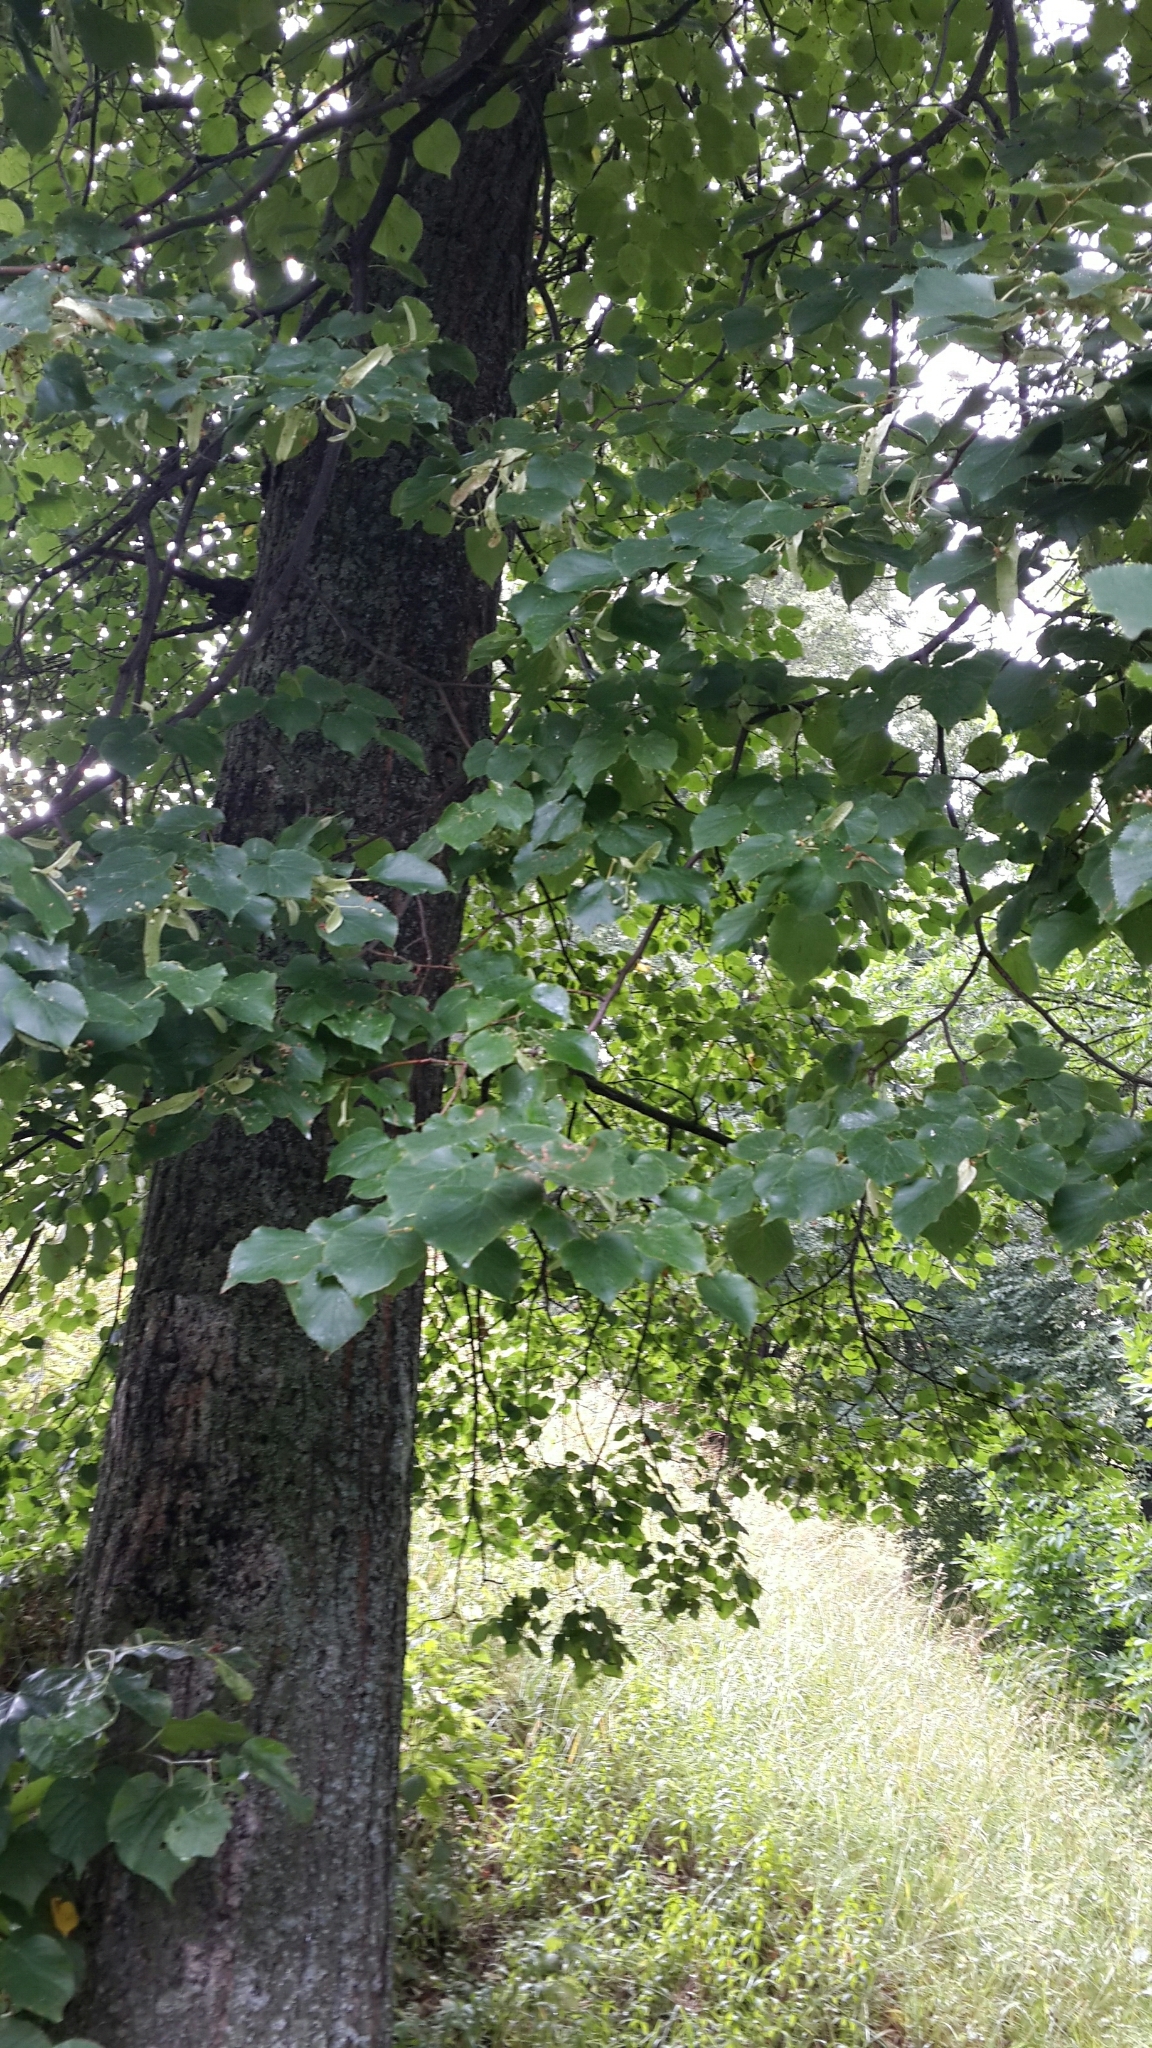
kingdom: Plantae
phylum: Tracheophyta
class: Magnoliopsida
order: Malvales
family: Malvaceae
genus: Tilia
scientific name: Tilia cordata
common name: Small-leaved lime
